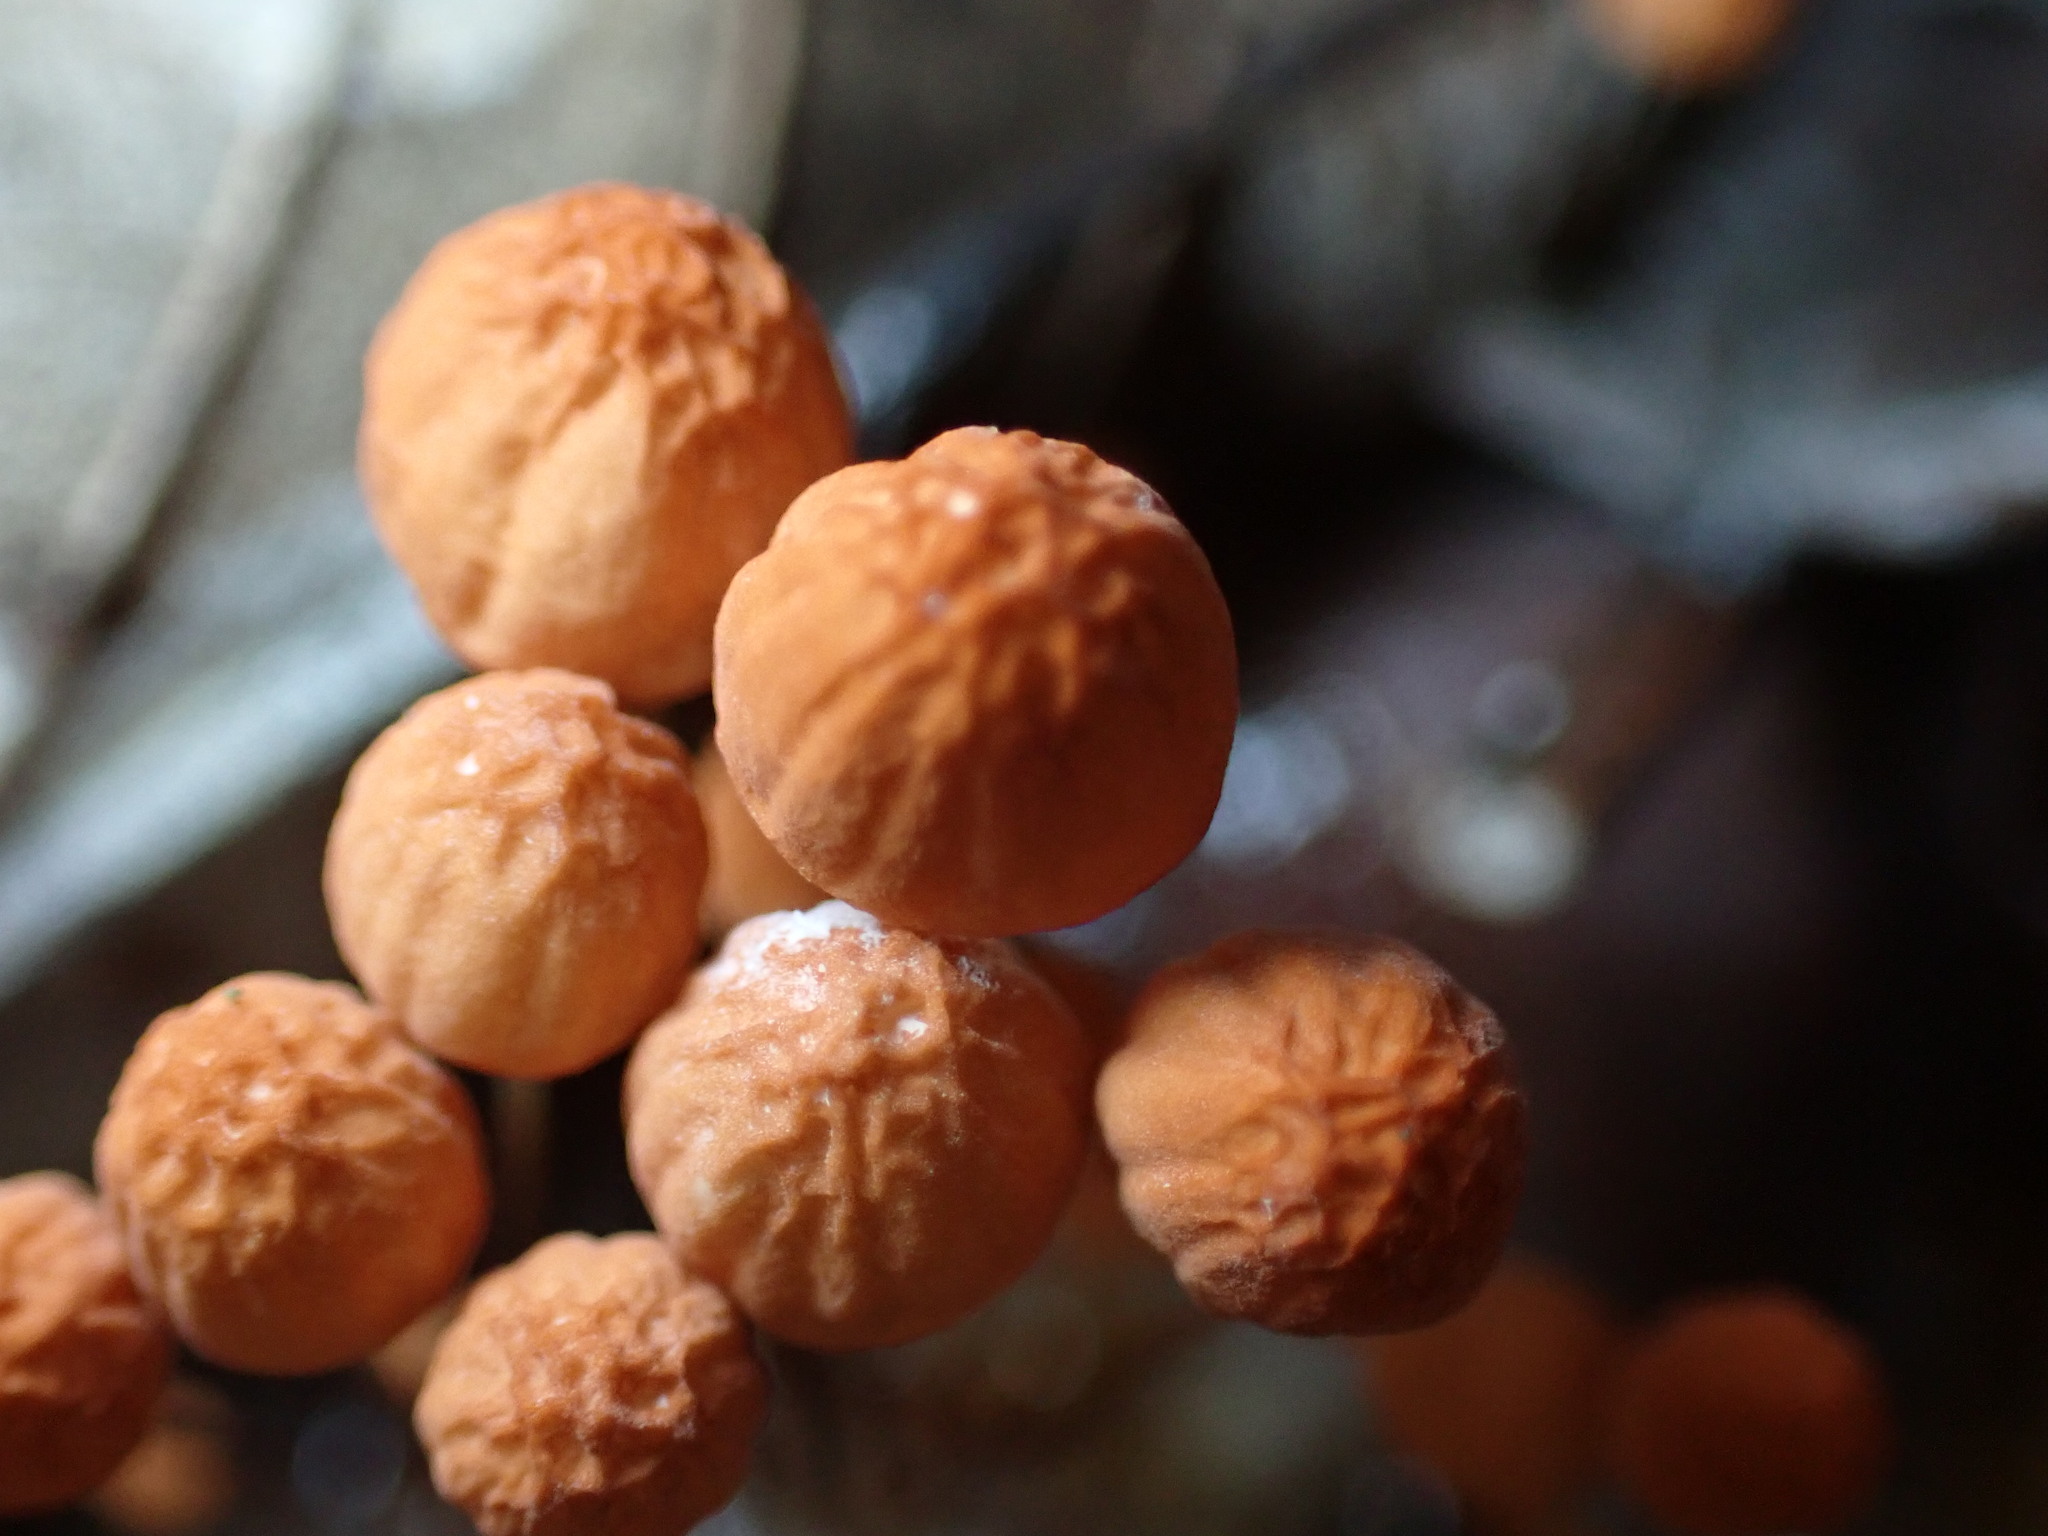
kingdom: Fungi
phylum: Basidiomycota
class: Agaricomycetes
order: Agaricales
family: Marasmiaceae
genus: Marasmius
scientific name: Marasmius siccus
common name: Orange pinwheel
